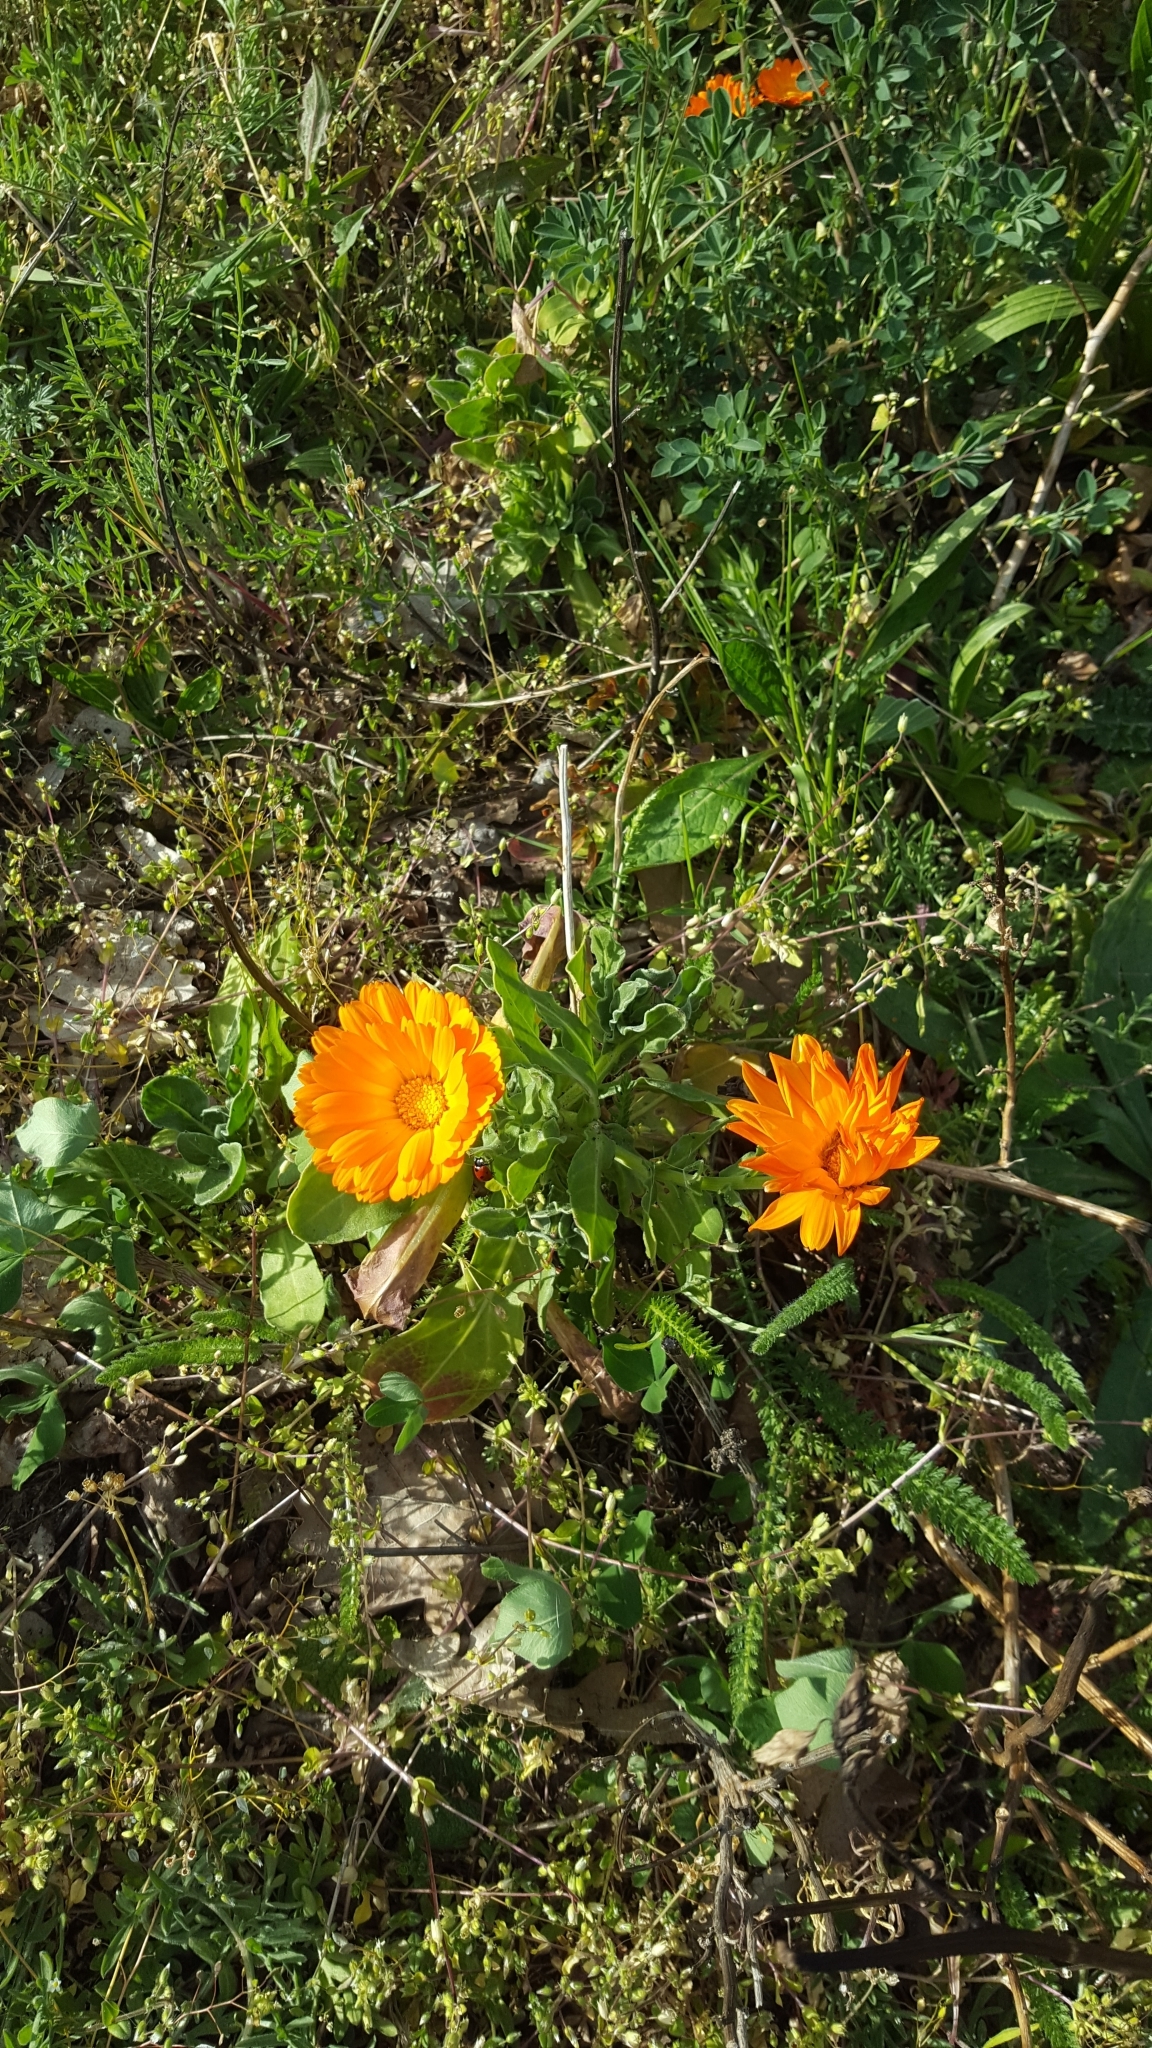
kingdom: Plantae
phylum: Tracheophyta
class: Magnoliopsida
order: Asterales
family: Asteraceae
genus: Calendula
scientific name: Calendula officinalis
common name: Pot marigold
